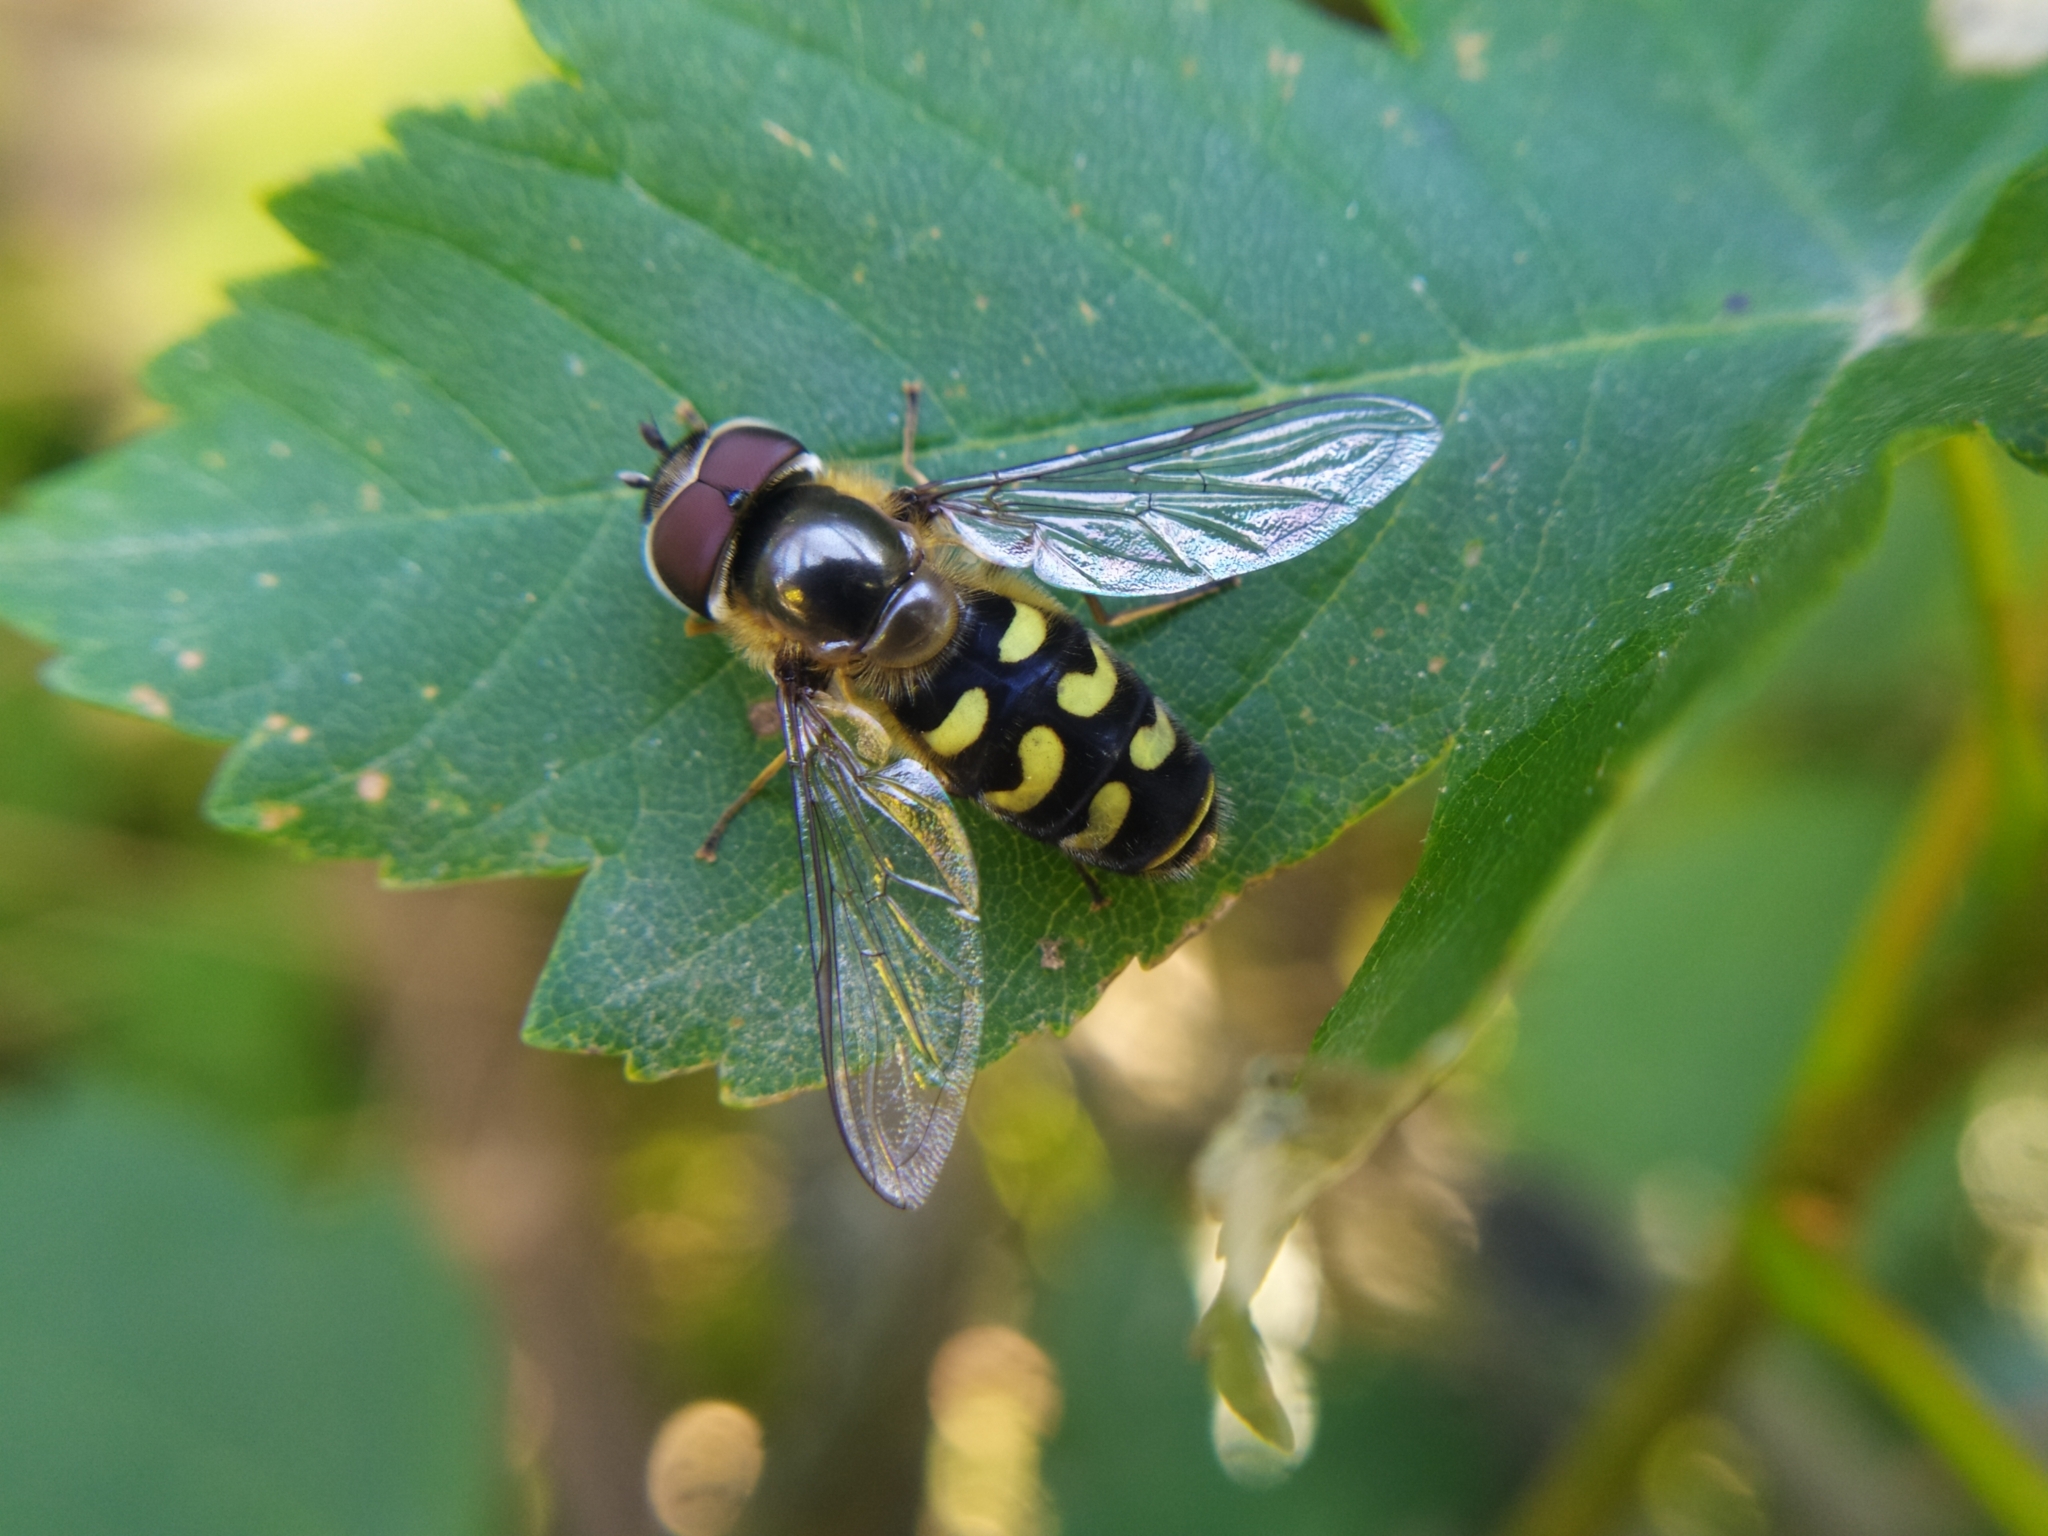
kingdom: Animalia
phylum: Arthropoda
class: Insecta
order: Diptera
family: Syrphidae
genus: Scaeva
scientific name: Scaeva selenitica
